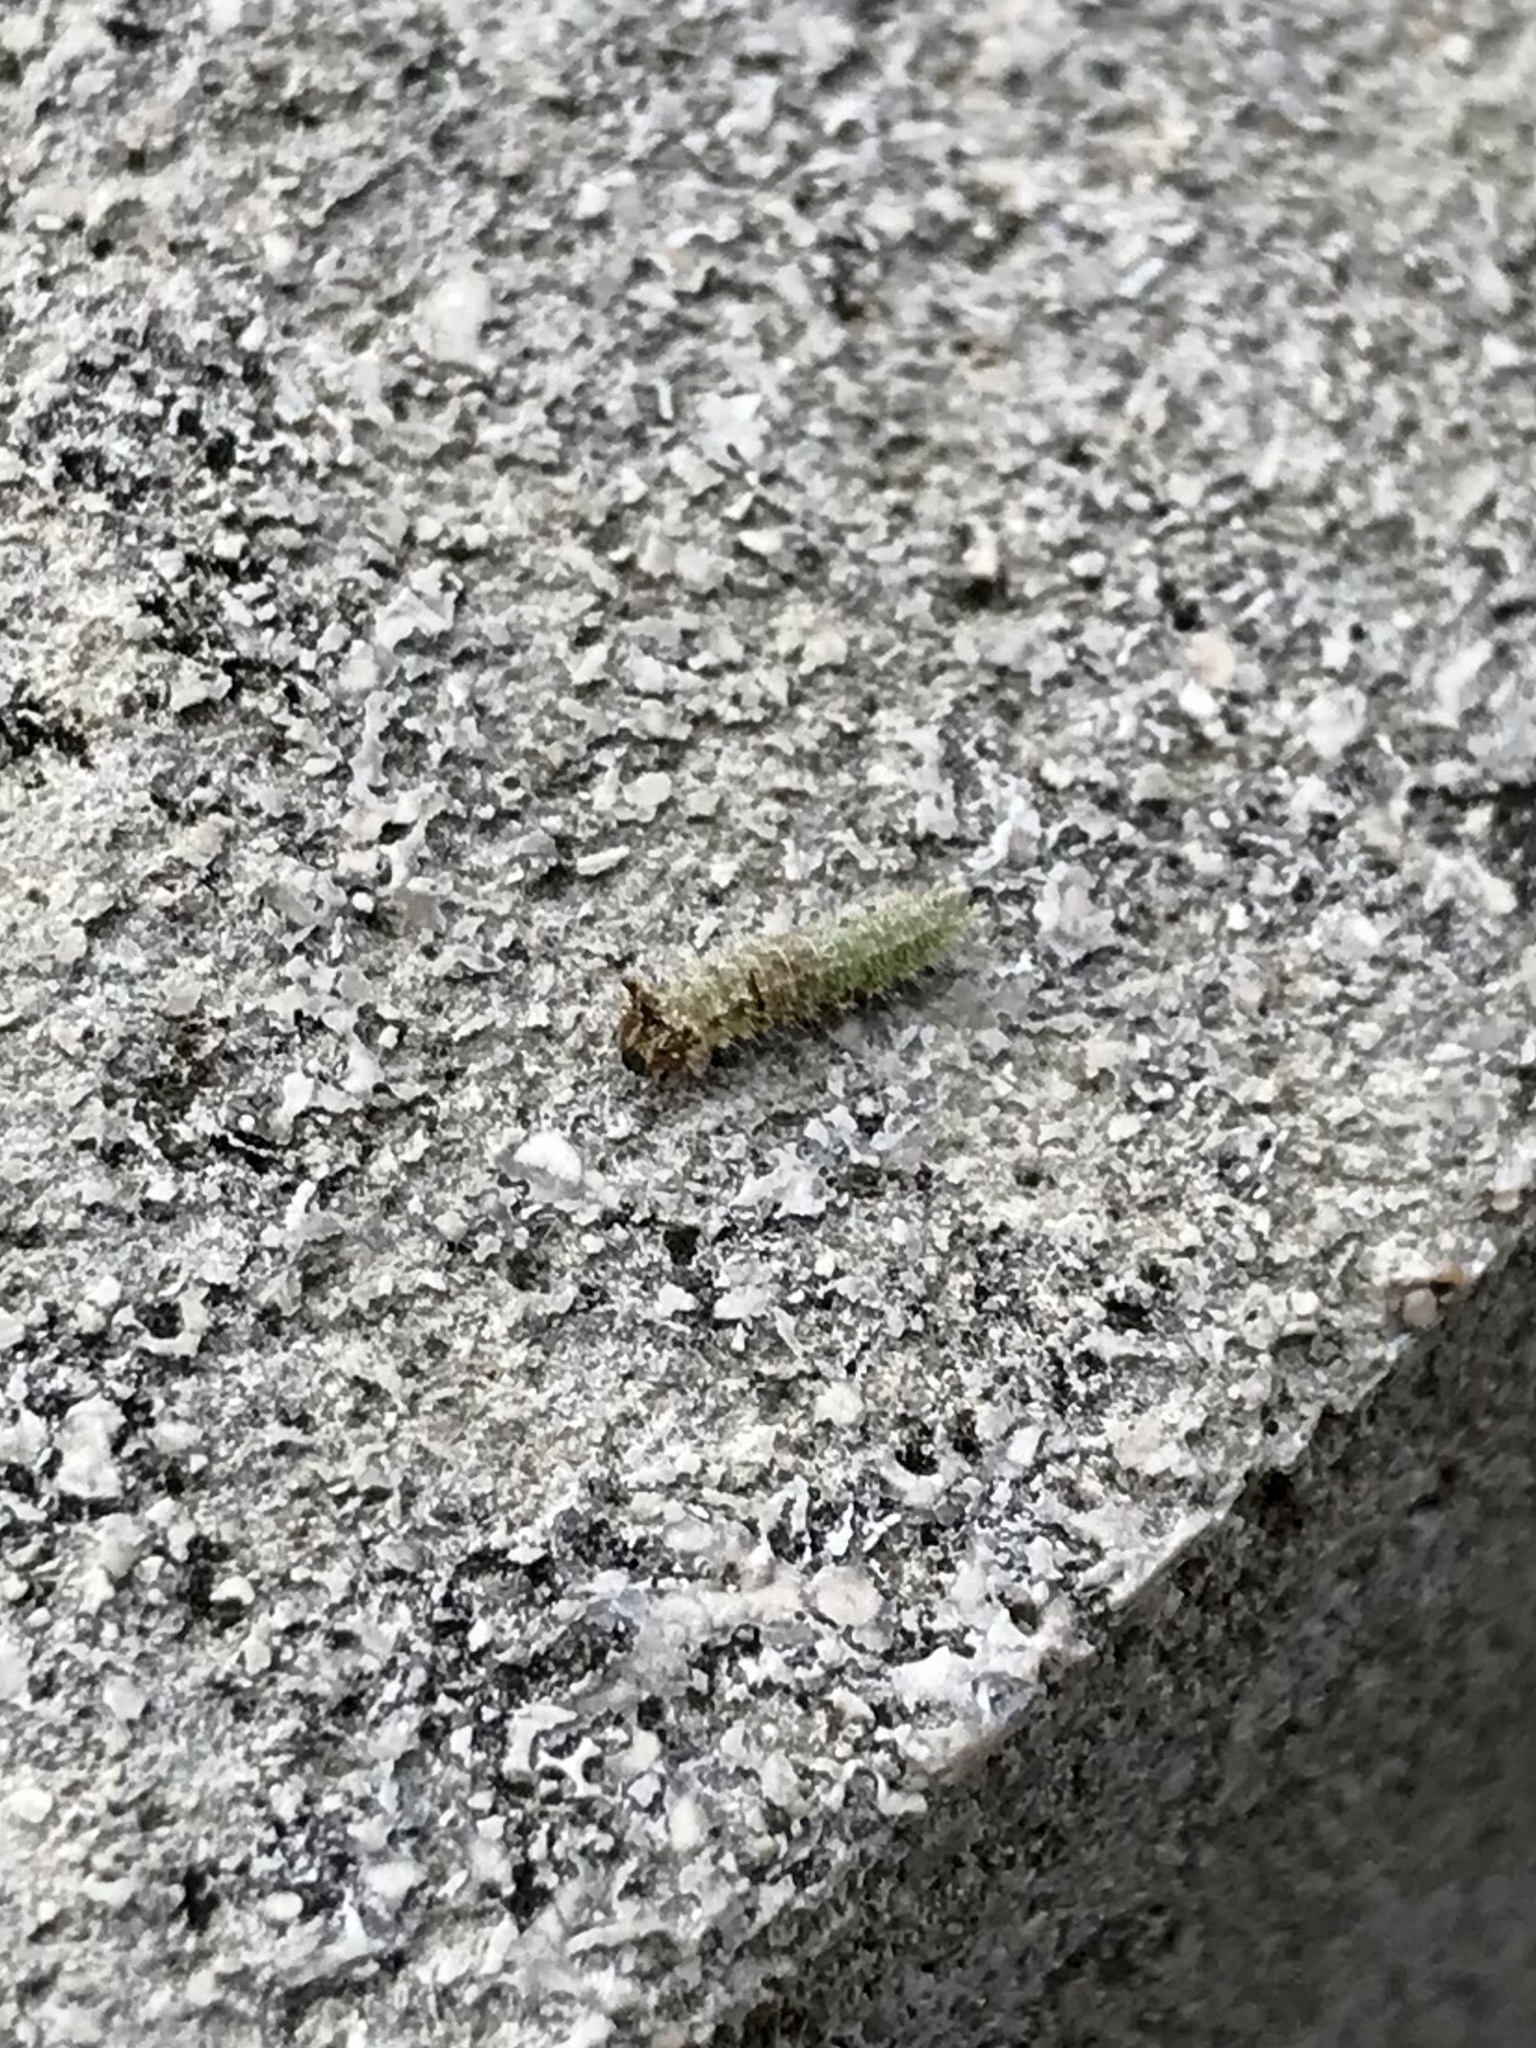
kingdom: Animalia
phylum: Arthropoda
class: Insecta
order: Lepidoptera
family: Nymphalidae
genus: Asterocampa
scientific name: Asterocampa celtis
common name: Hackberry emperor
